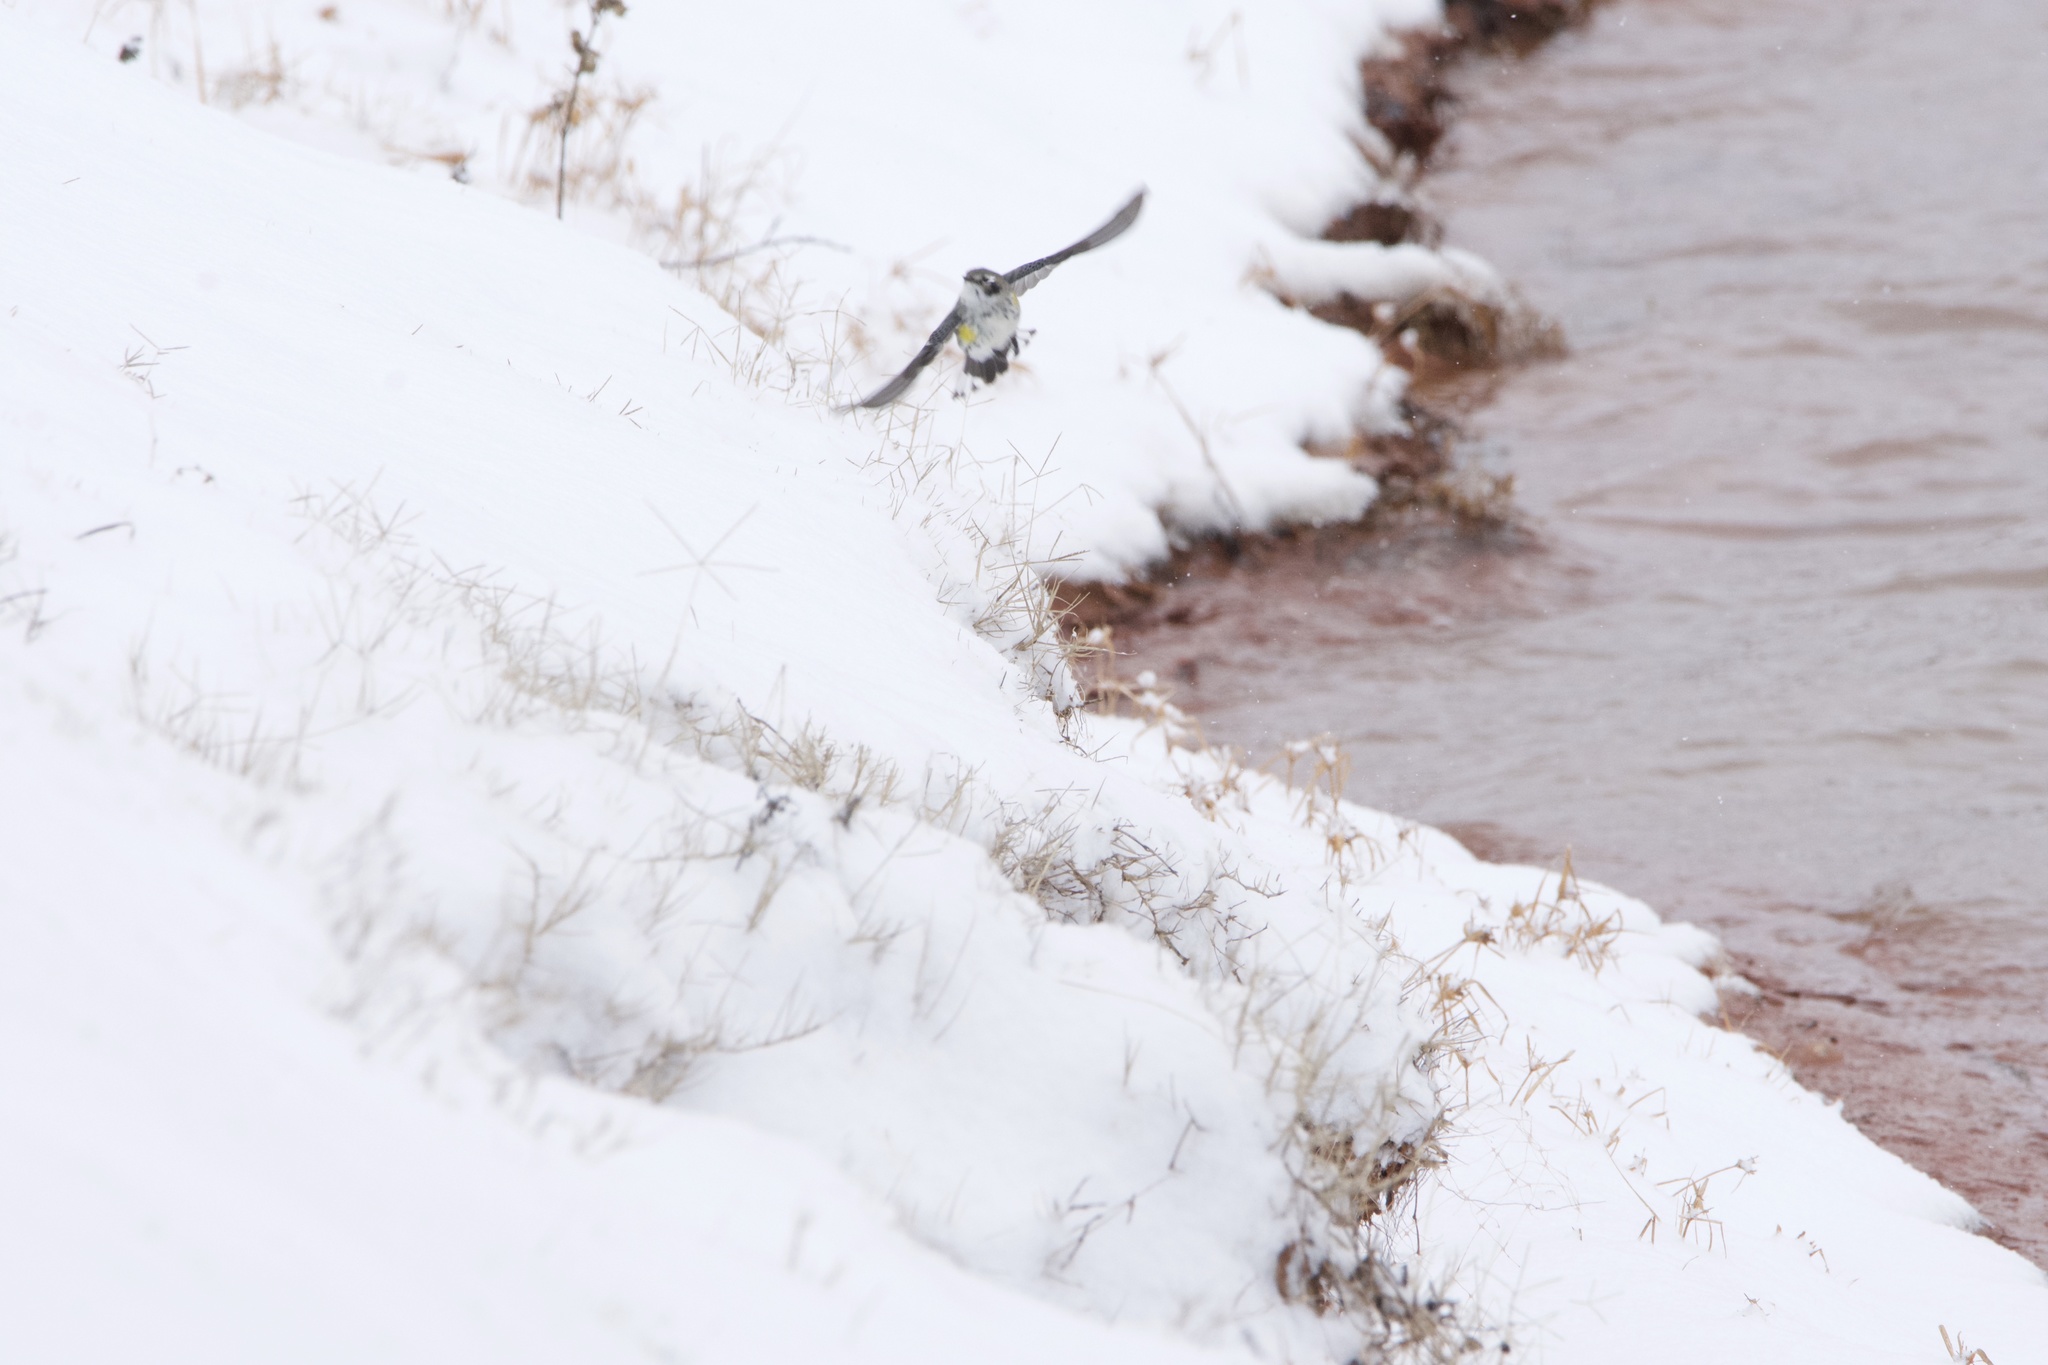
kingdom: Animalia
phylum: Chordata
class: Aves
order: Passeriformes
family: Parulidae
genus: Setophaga
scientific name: Setophaga coronata
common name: Myrtle warbler
